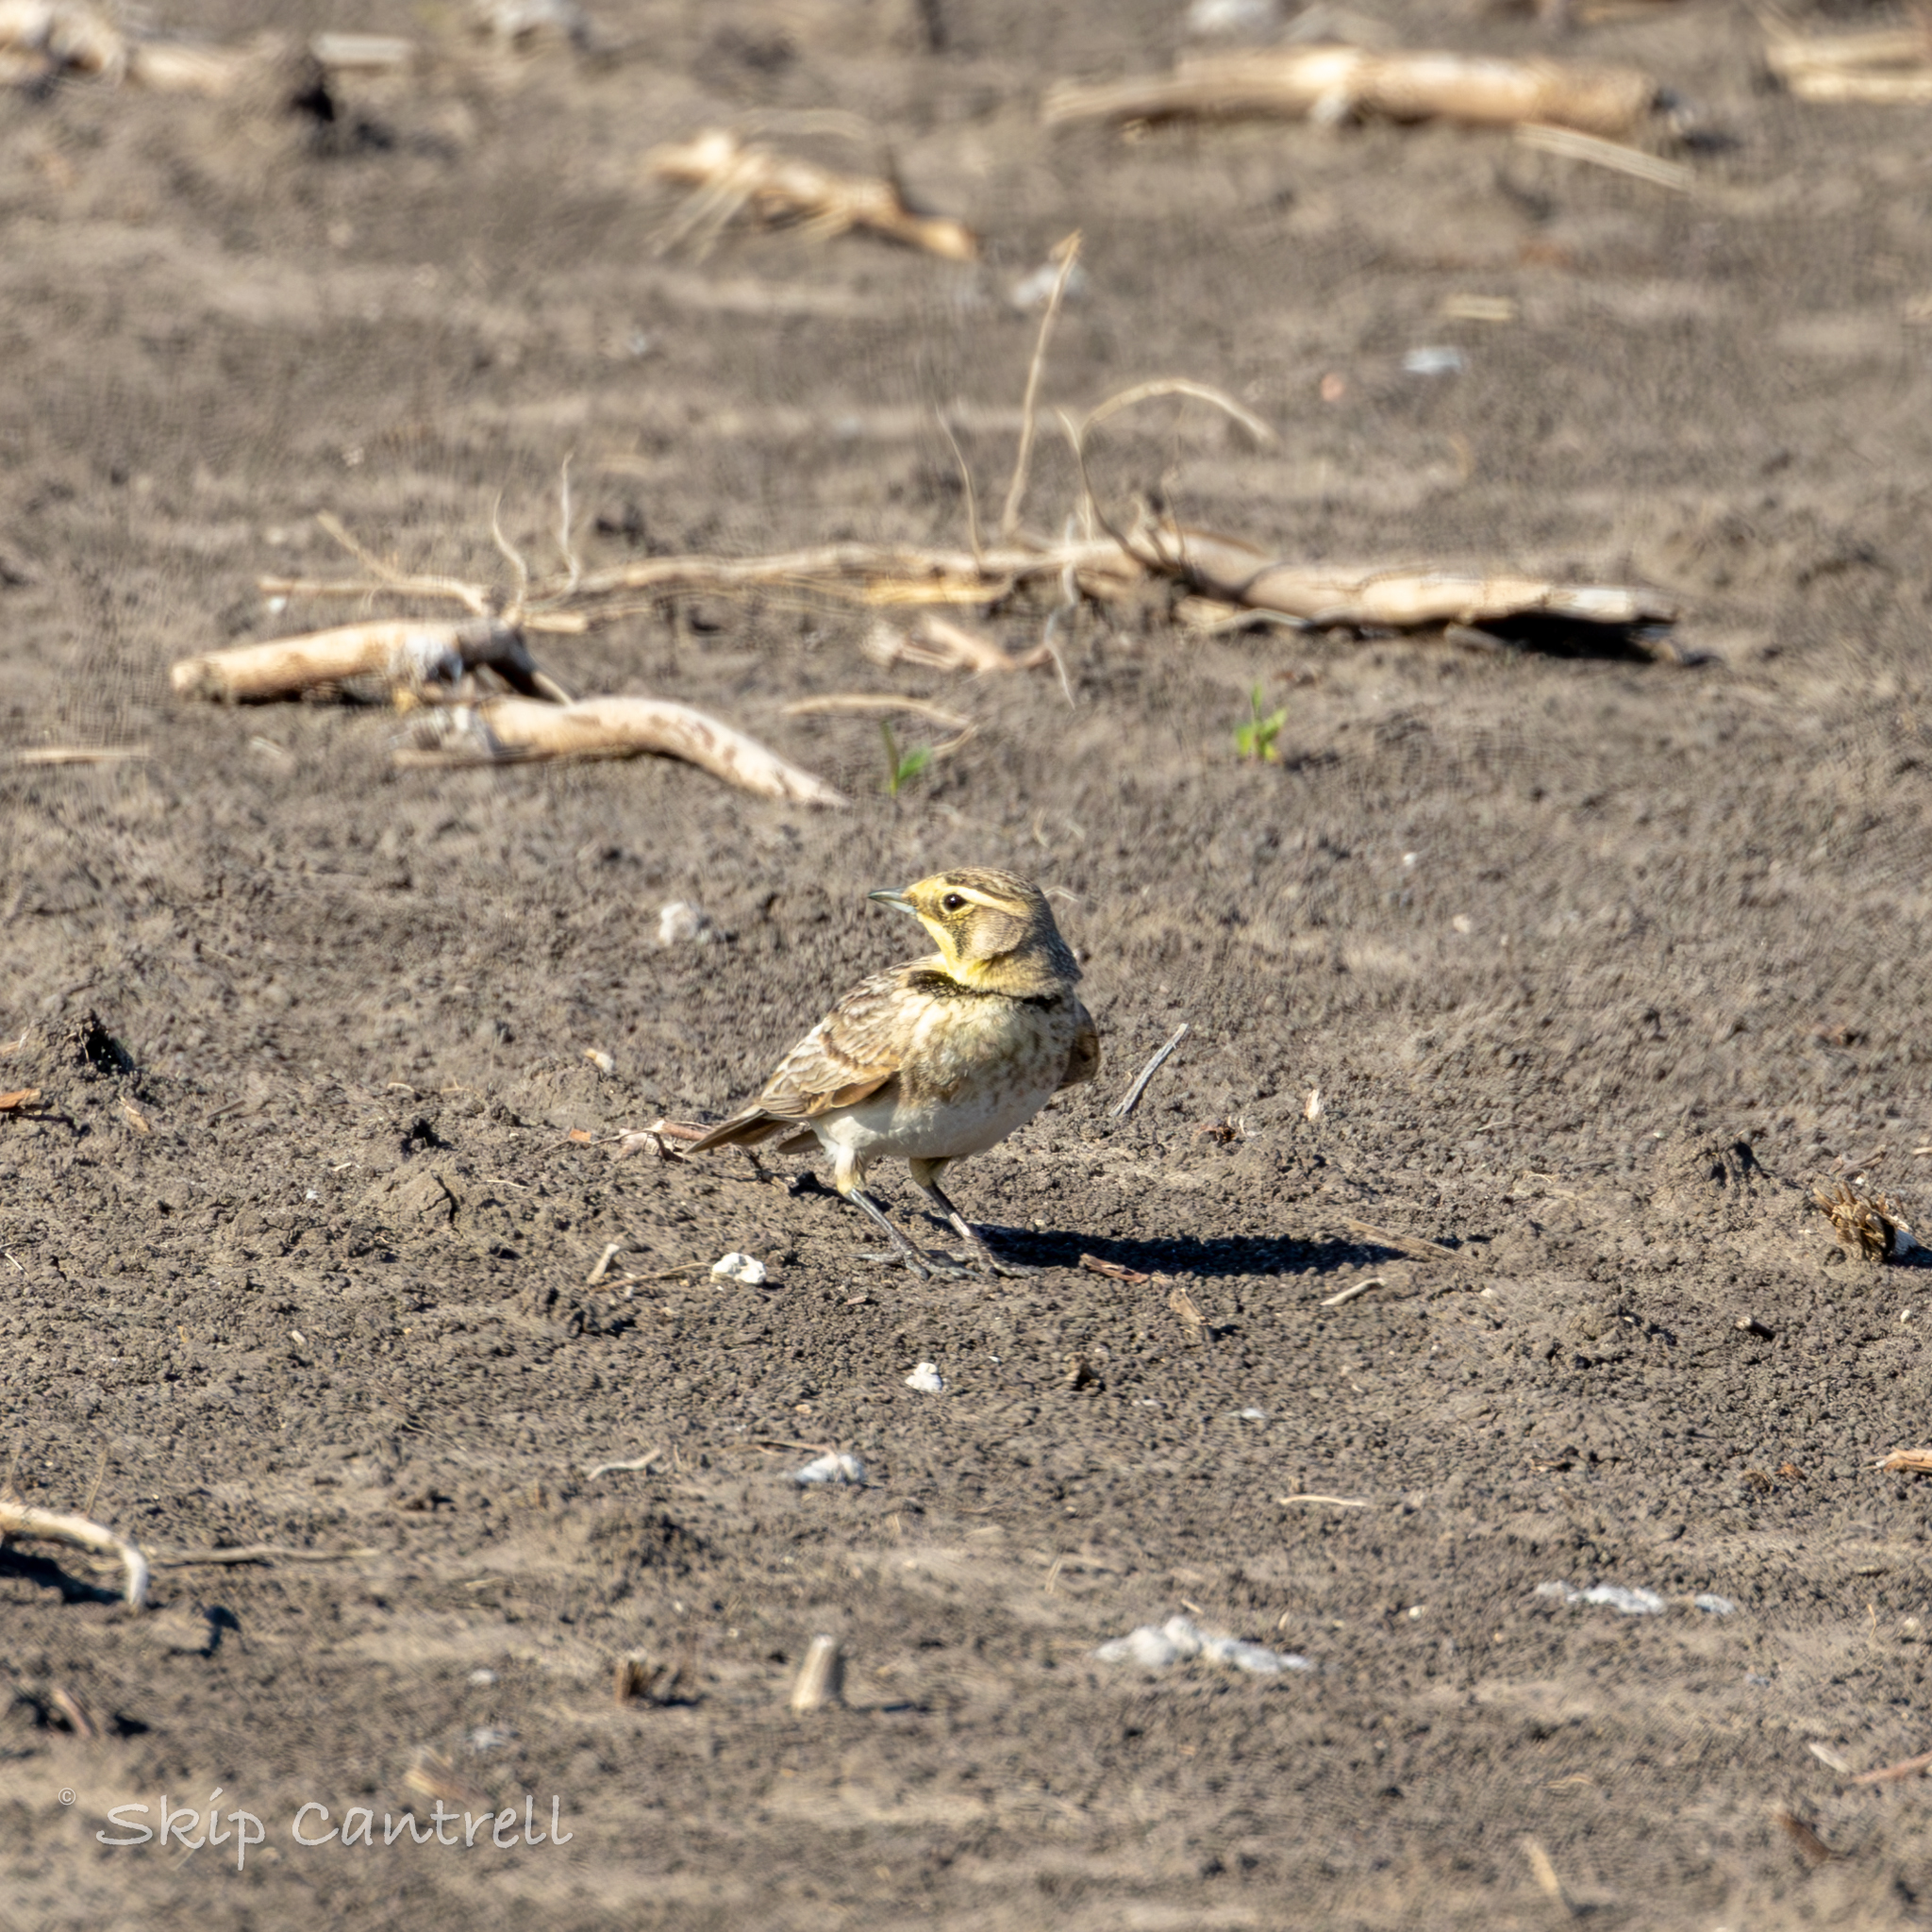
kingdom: Animalia
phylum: Chordata
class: Aves
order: Passeriformes
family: Alaudidae
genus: Eremophila
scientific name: Eremophila alpestris
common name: Horned lark
